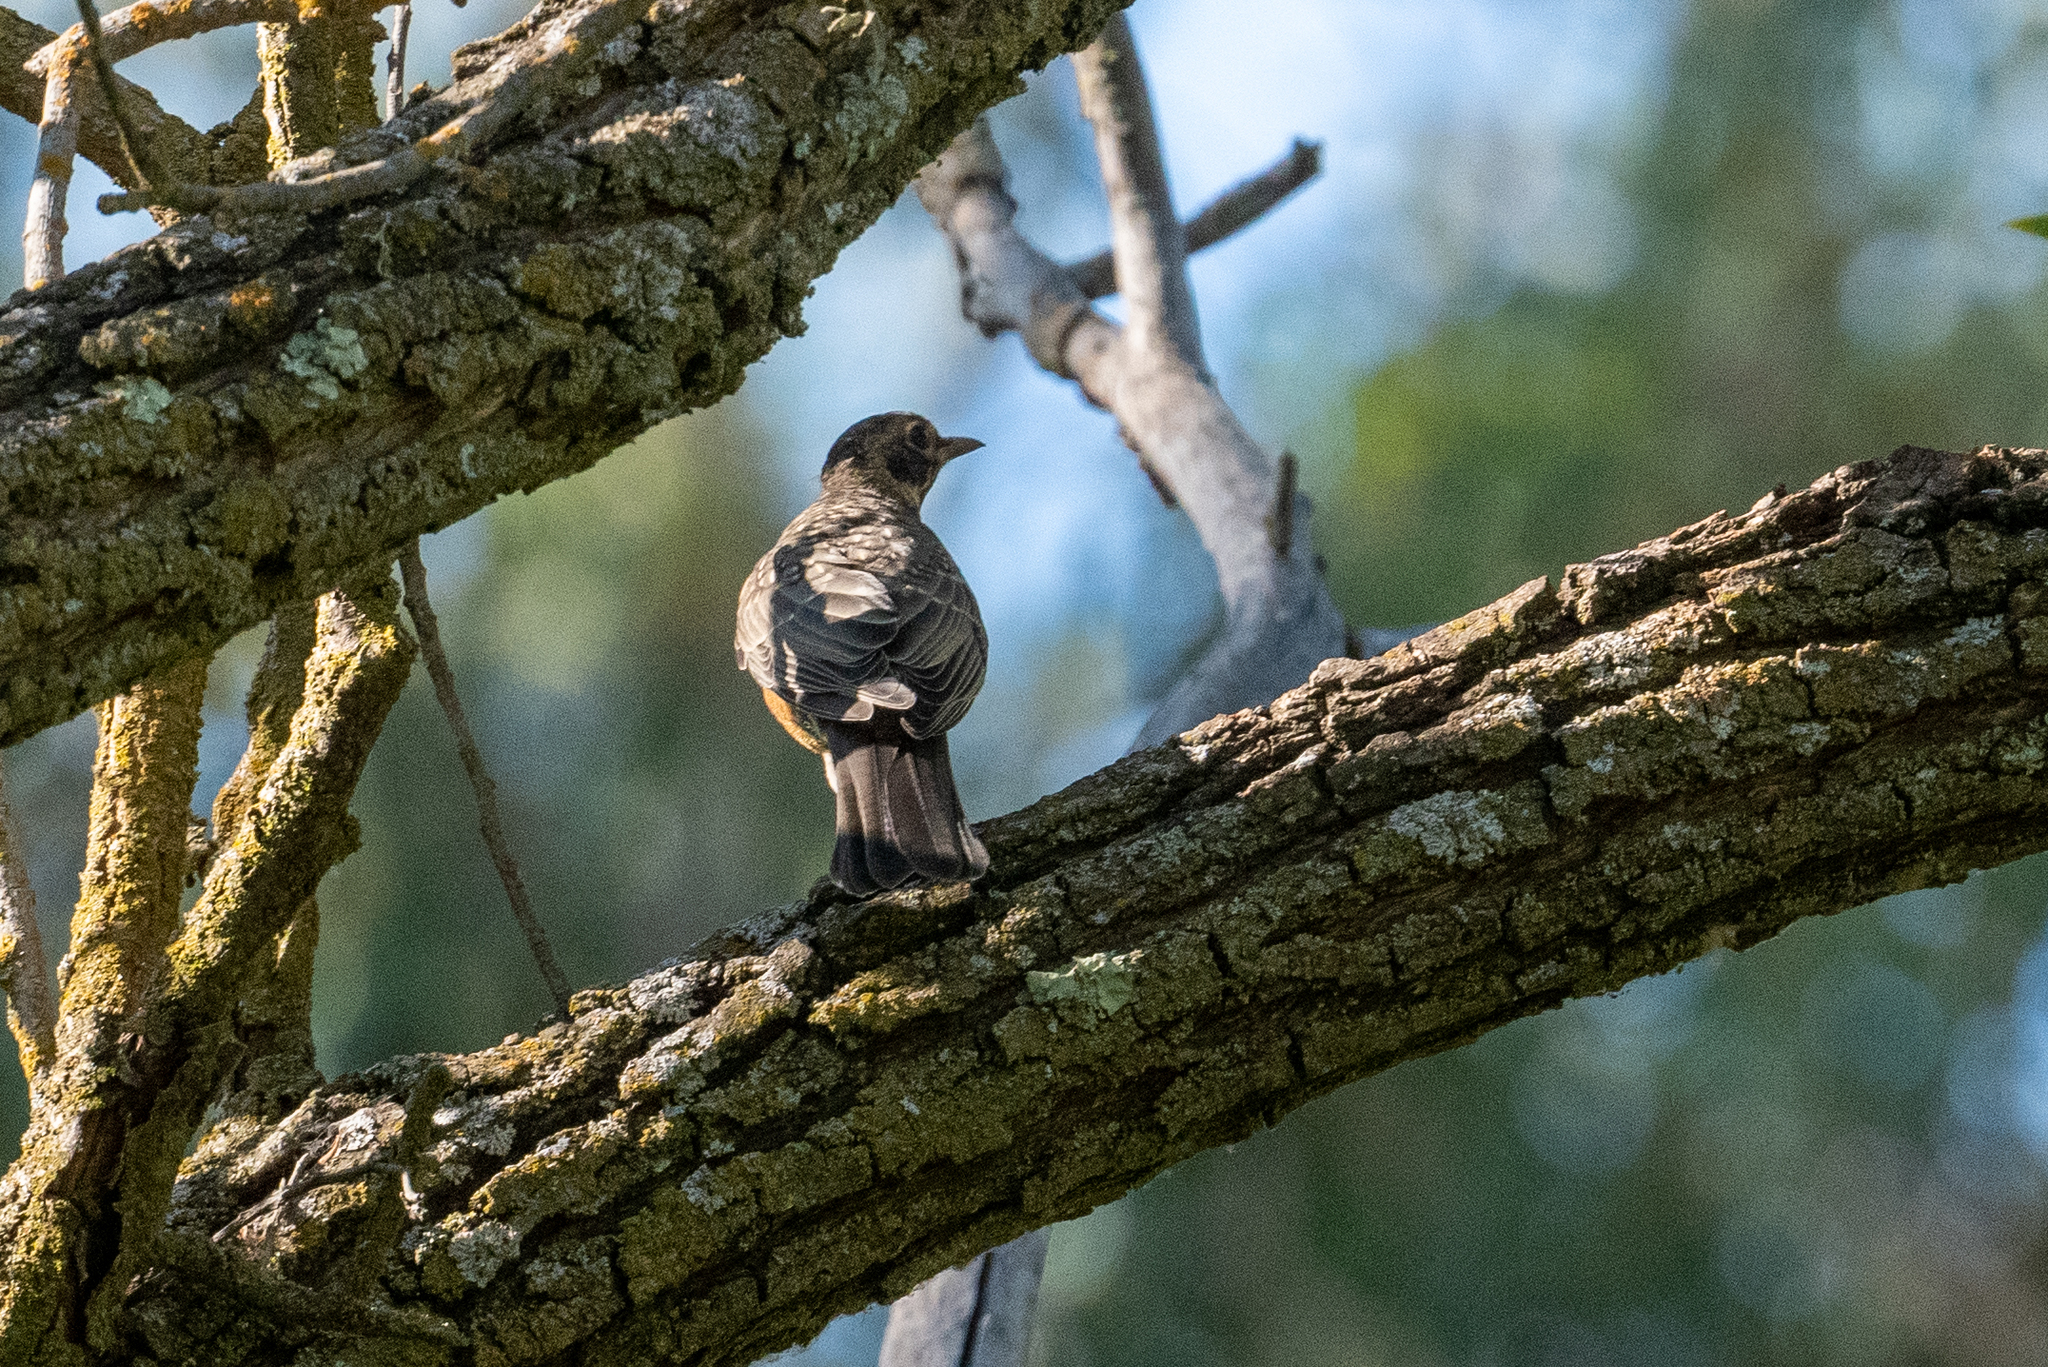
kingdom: Animalia
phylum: Chordata
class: Aves
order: Passeriformes
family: Turdidae
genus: Turdus
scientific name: Turdus migratorius
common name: American robin
